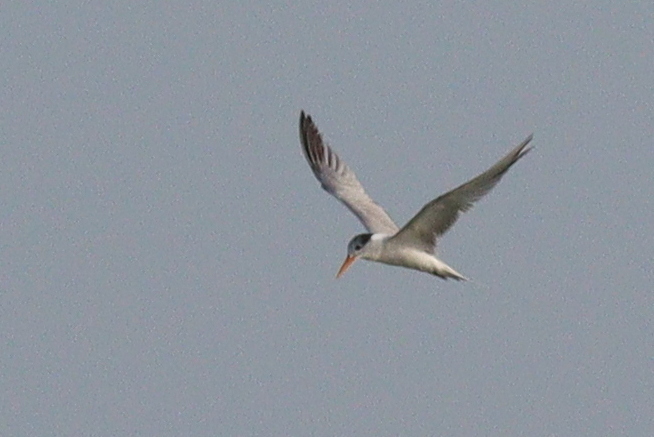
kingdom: Animalia
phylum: Chordata
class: Aves
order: Charadriiformes
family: Laridae
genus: Thalasseus
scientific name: Thalasseus bengalensis
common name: Lesser crested tern
